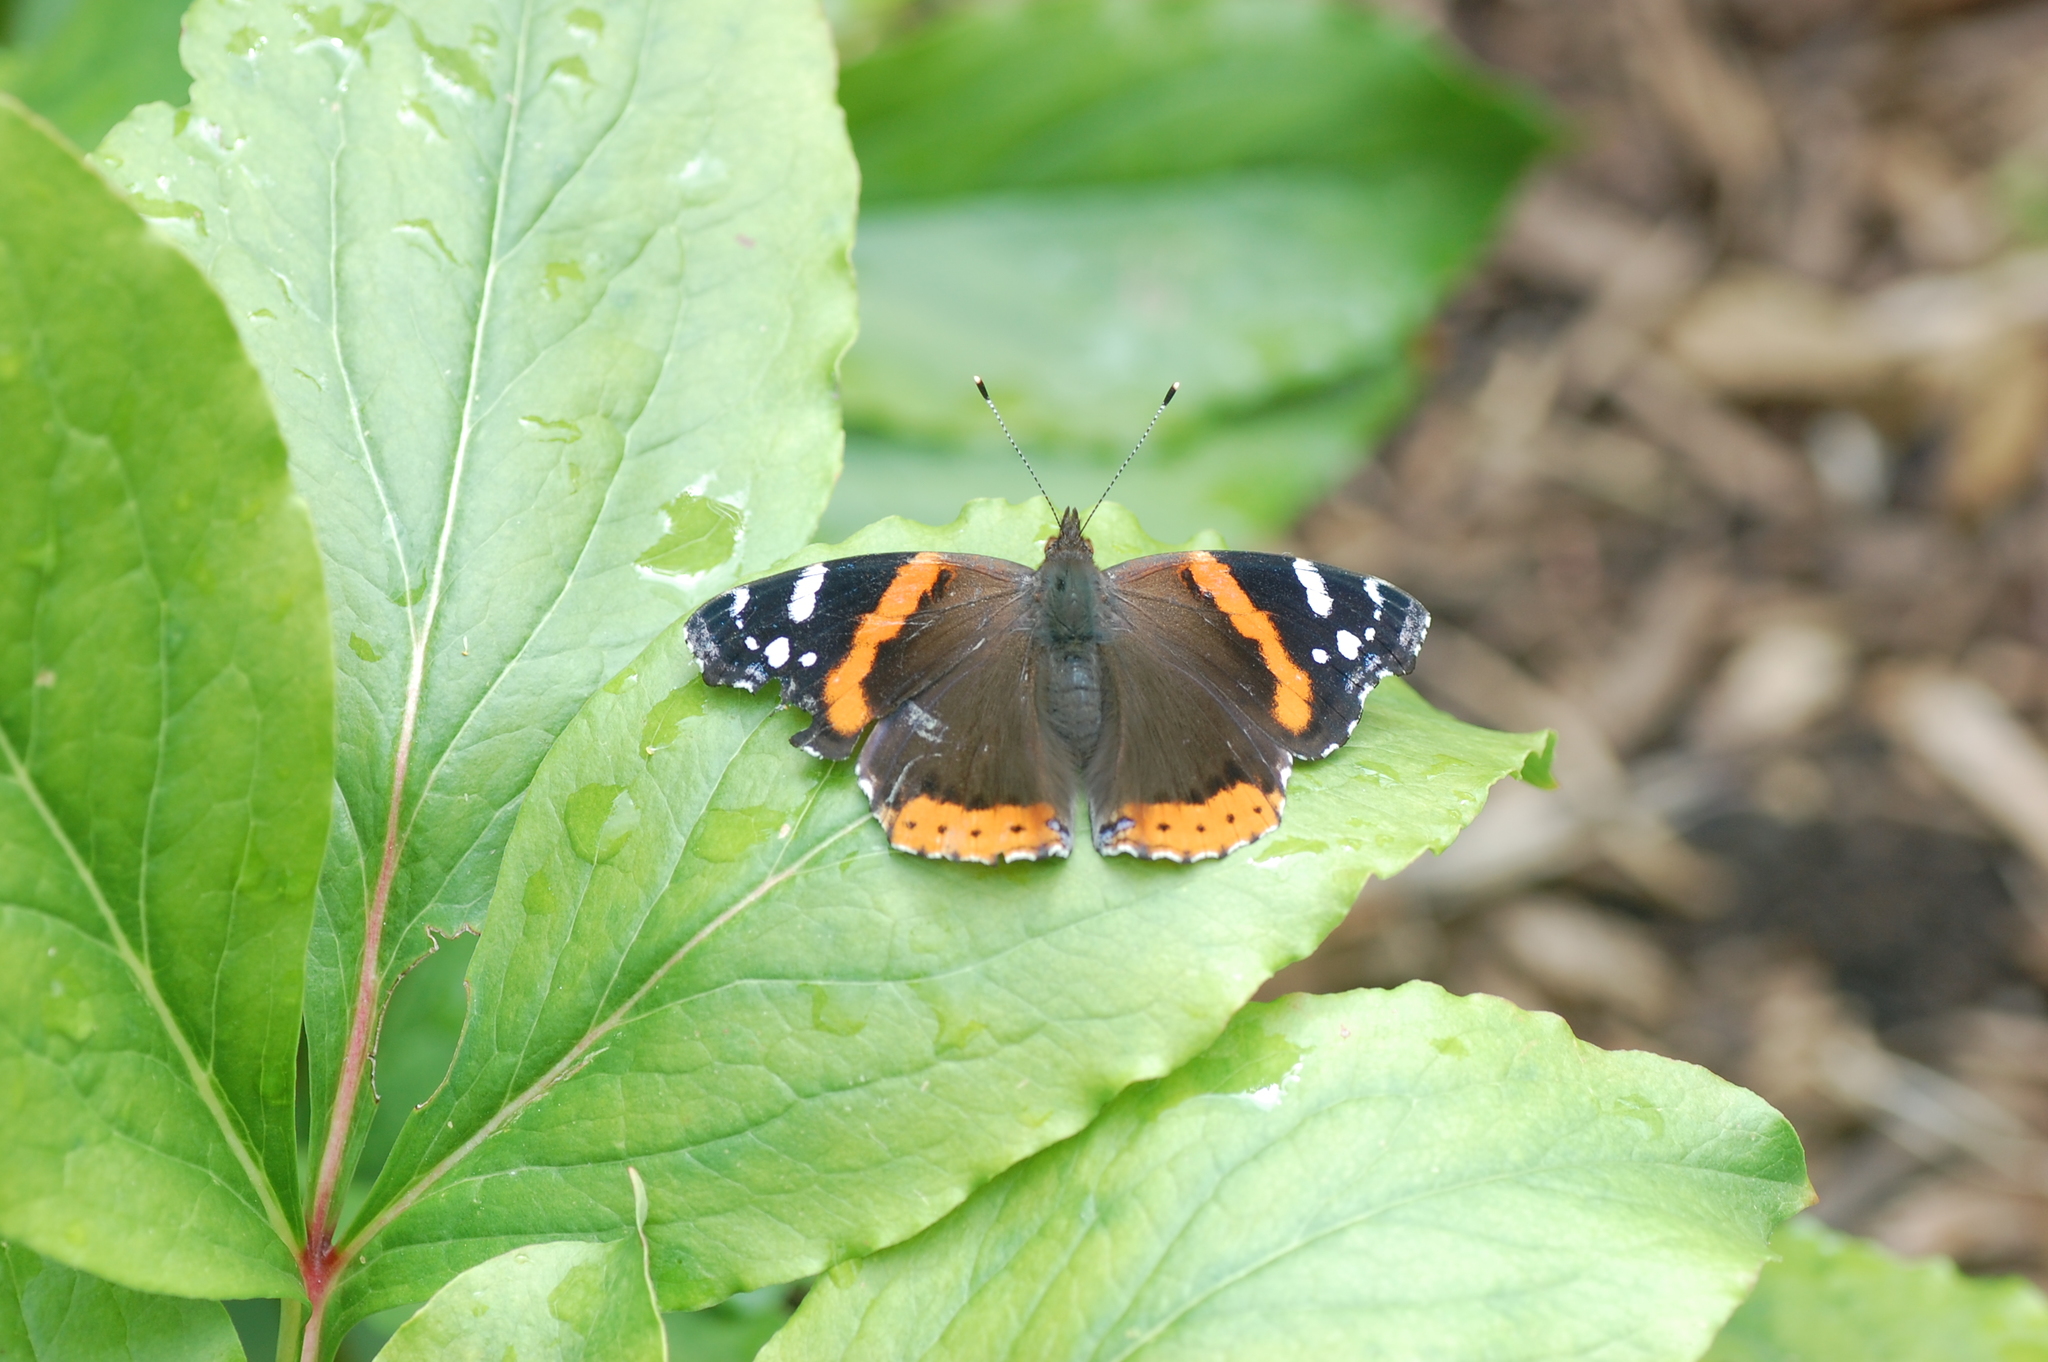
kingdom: Animalia
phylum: Arthropoda
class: Insecta
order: Lepidoptera
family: Nymphalidae
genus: Vanessa
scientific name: Vanessa atalanta
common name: Red admiral
